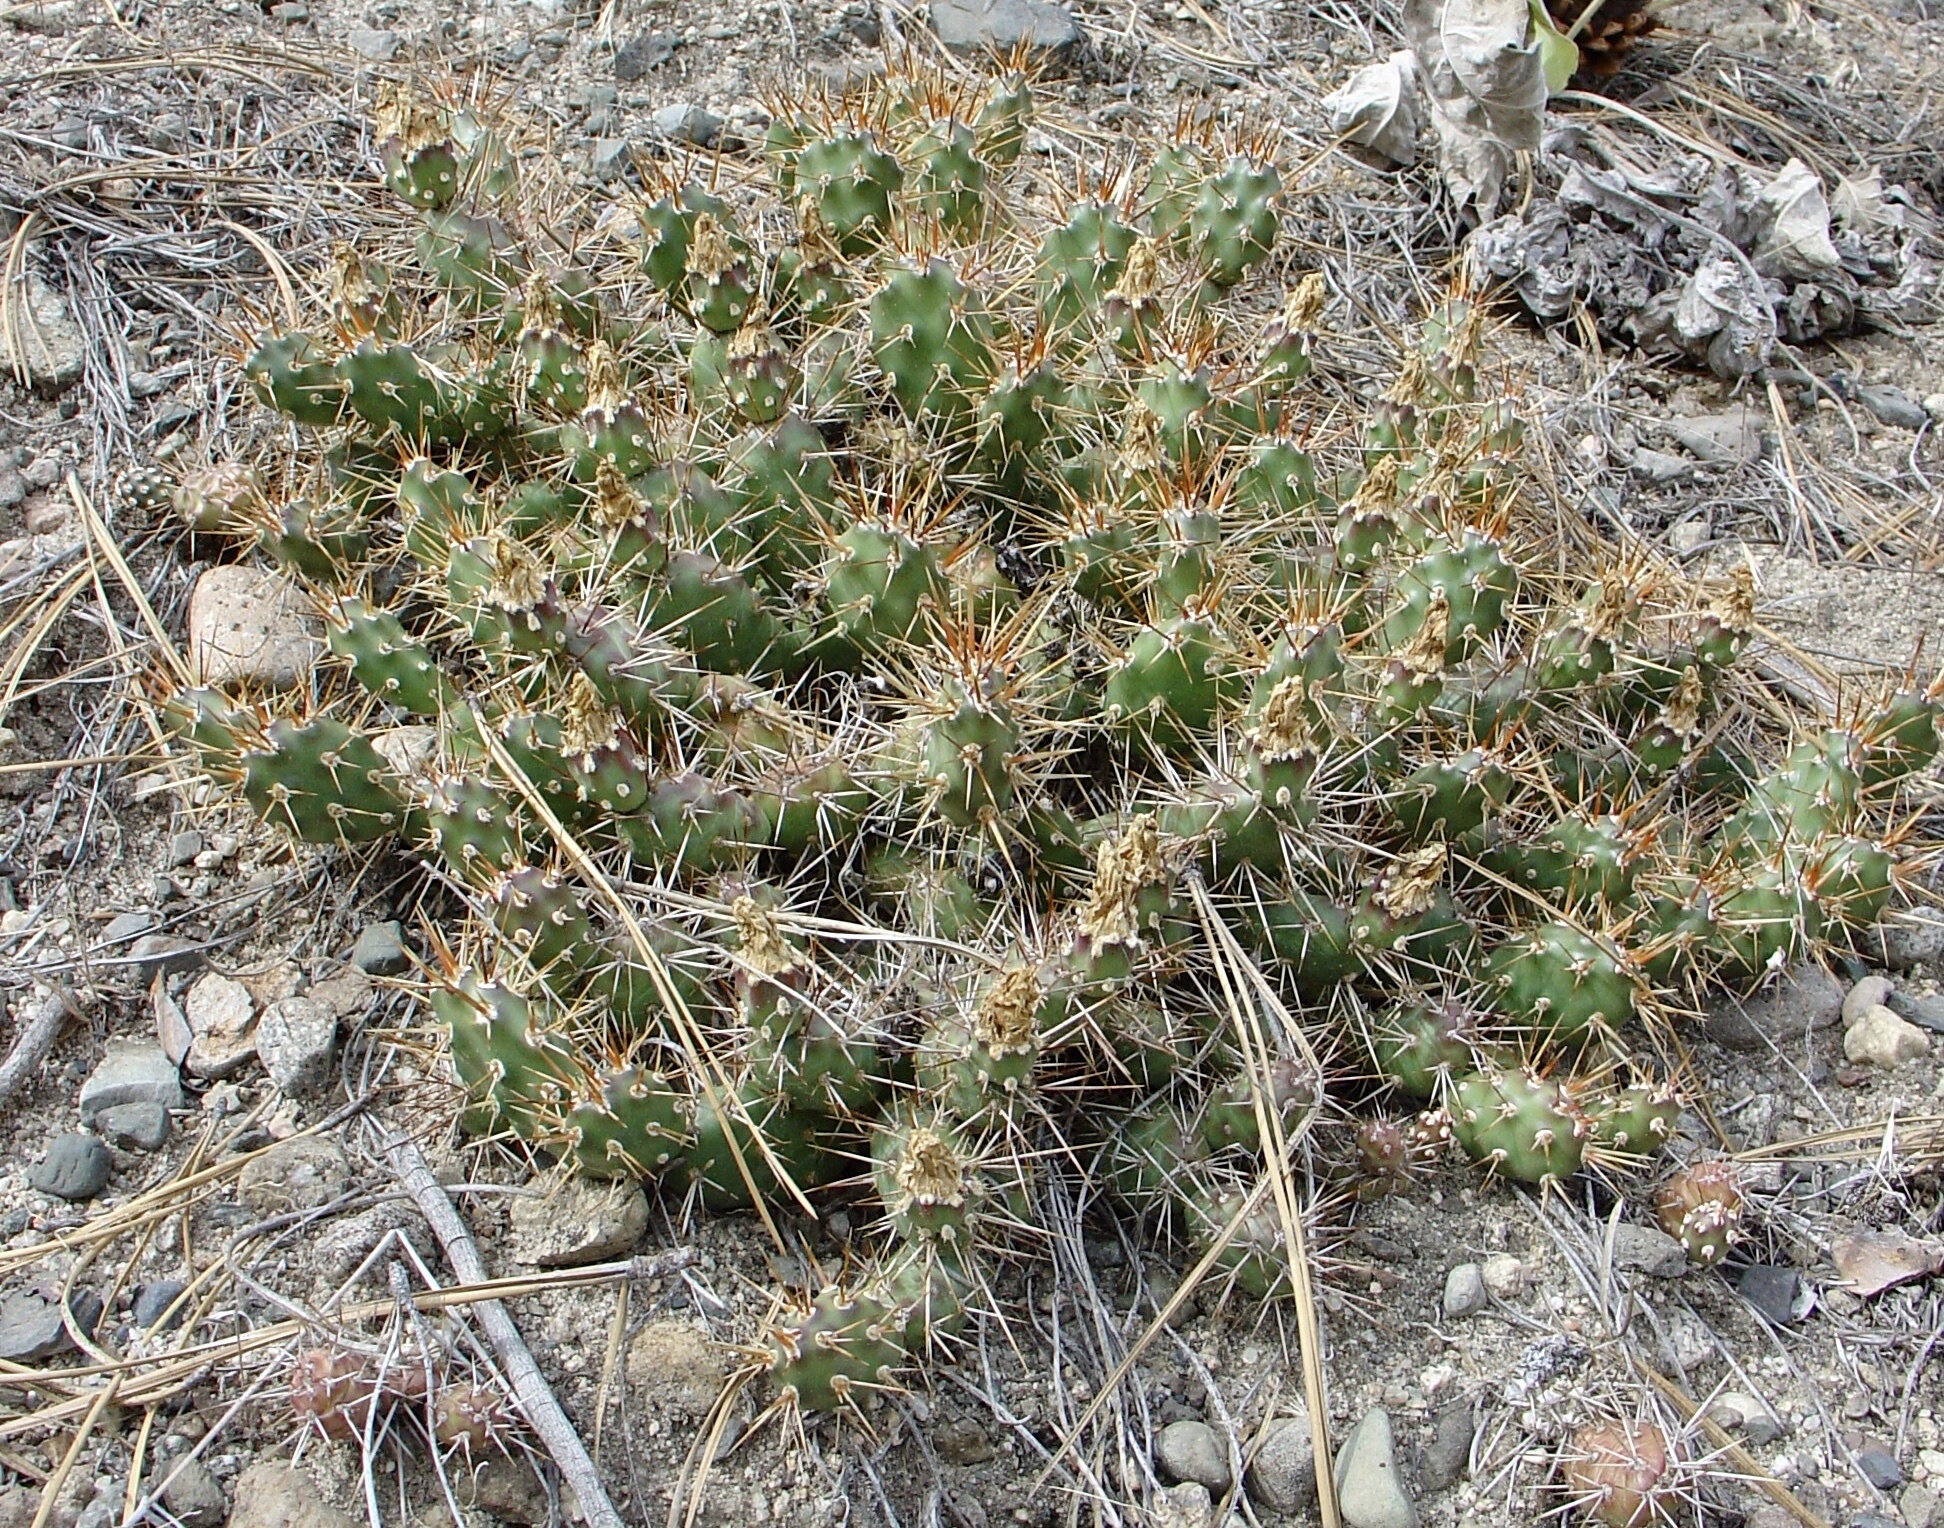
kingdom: Plantae
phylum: Tracheophyta
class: Magnoliopsida
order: Caryophyllales
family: Cactaceae
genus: Opuntia
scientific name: Opuntia fragilis
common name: Brittle cactus
